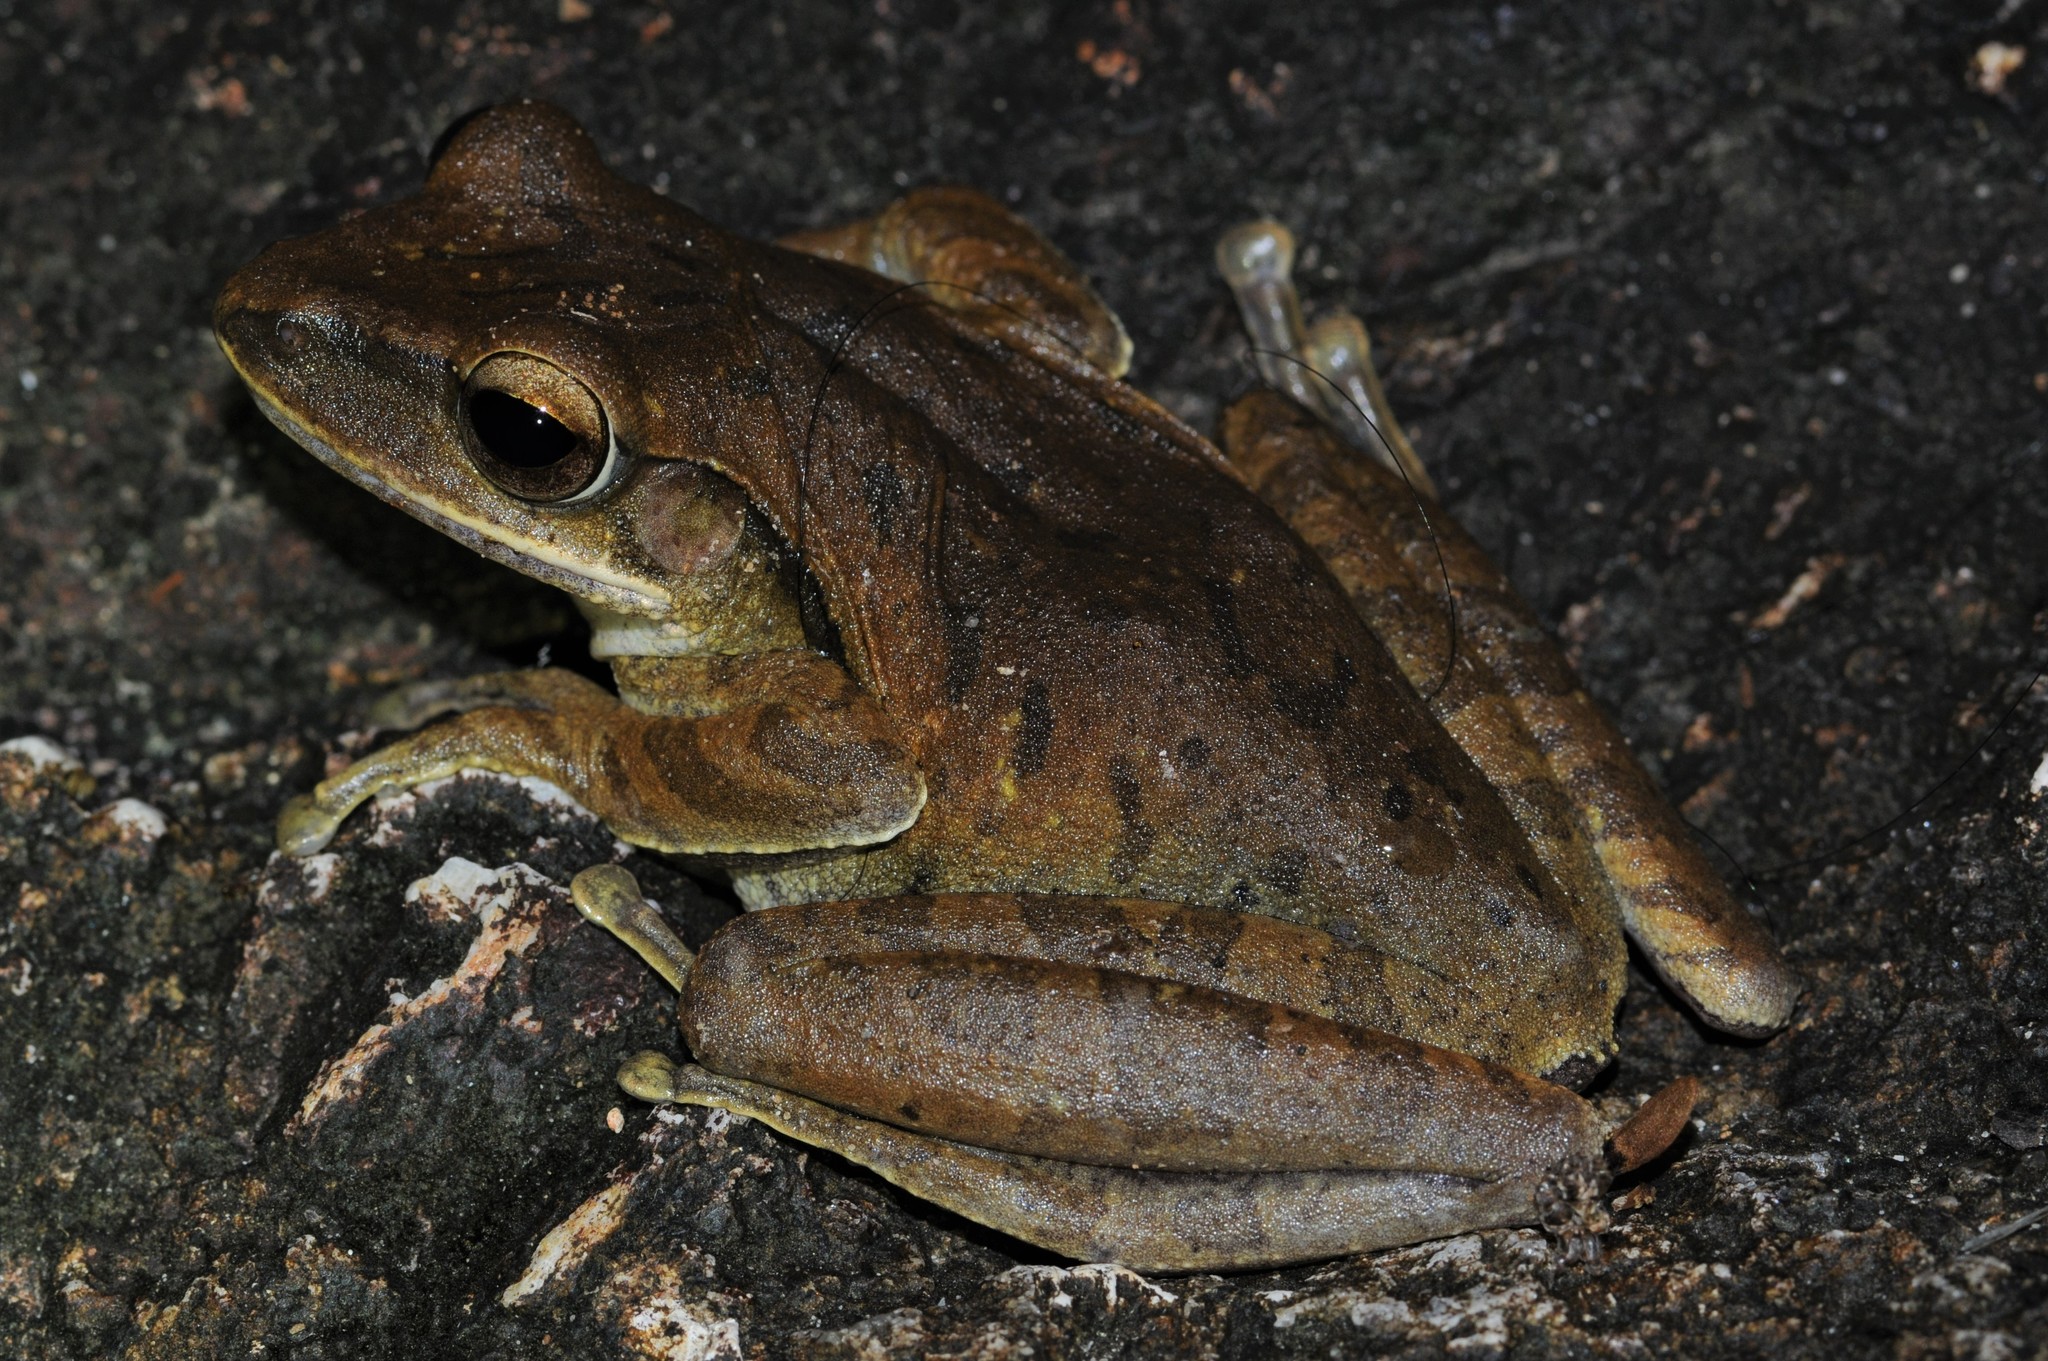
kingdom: Animalia
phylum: Chordata
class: Amphibia
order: Anura
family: Rhacophoridae
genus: Polypedates
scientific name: Polypedates leucomystax
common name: Common tree frog/four-lined tree frog
